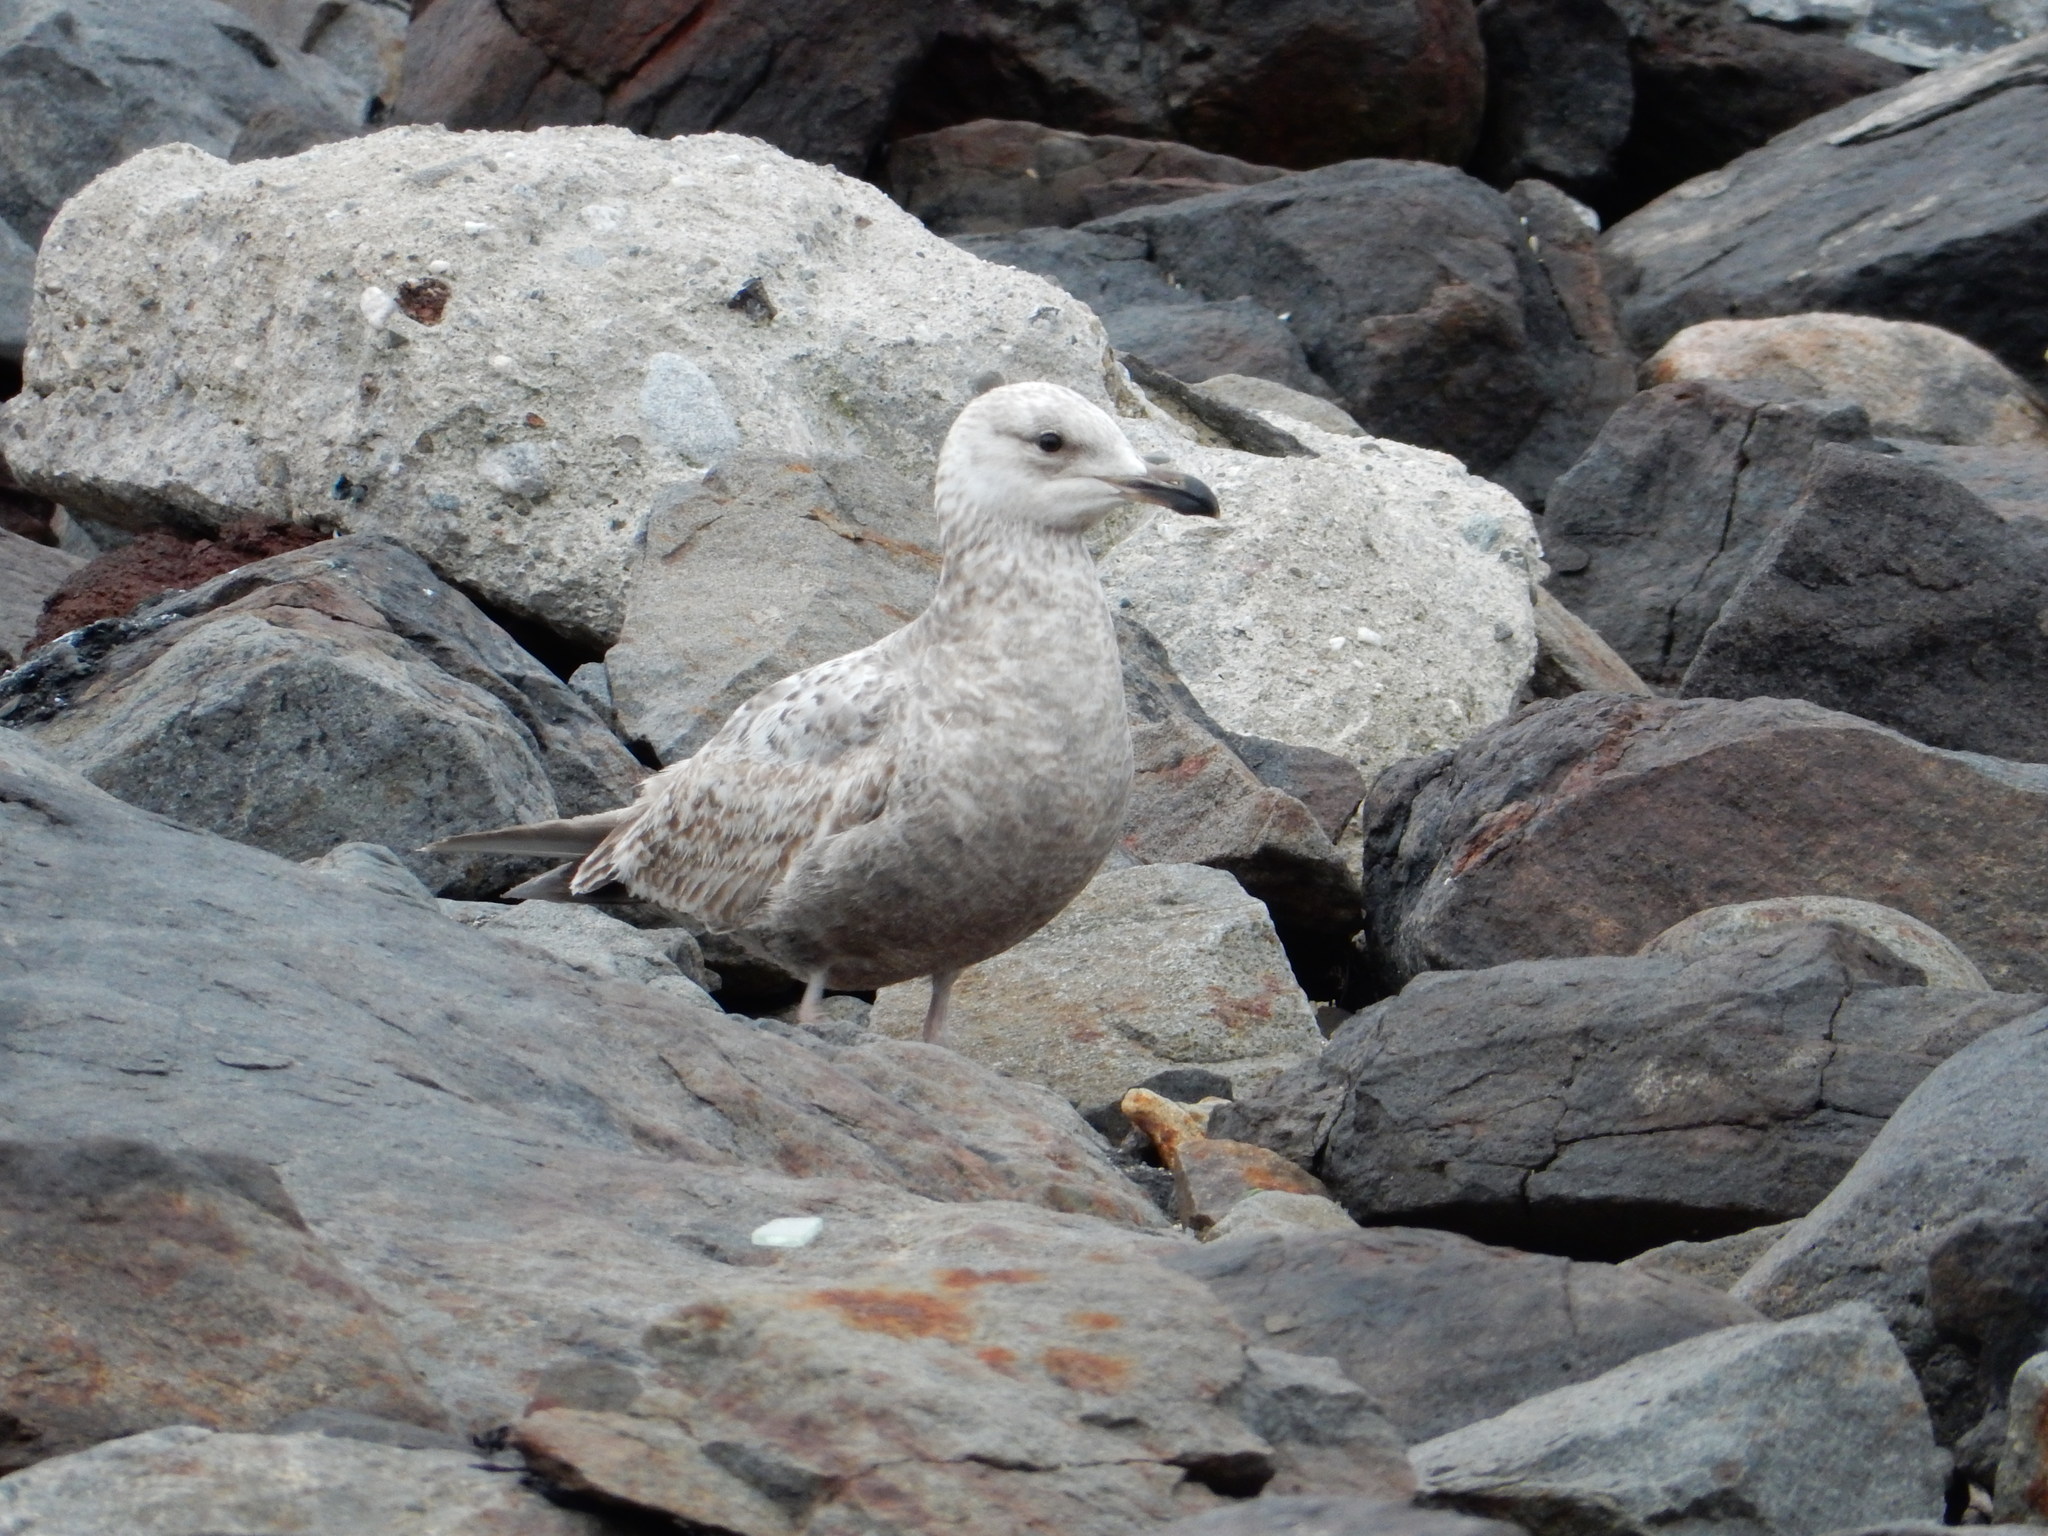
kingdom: Animalia
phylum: Chordata
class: Aves
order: Charadriiformes
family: Laridae
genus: Larus
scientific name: Larus argentatus
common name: Herring gull
